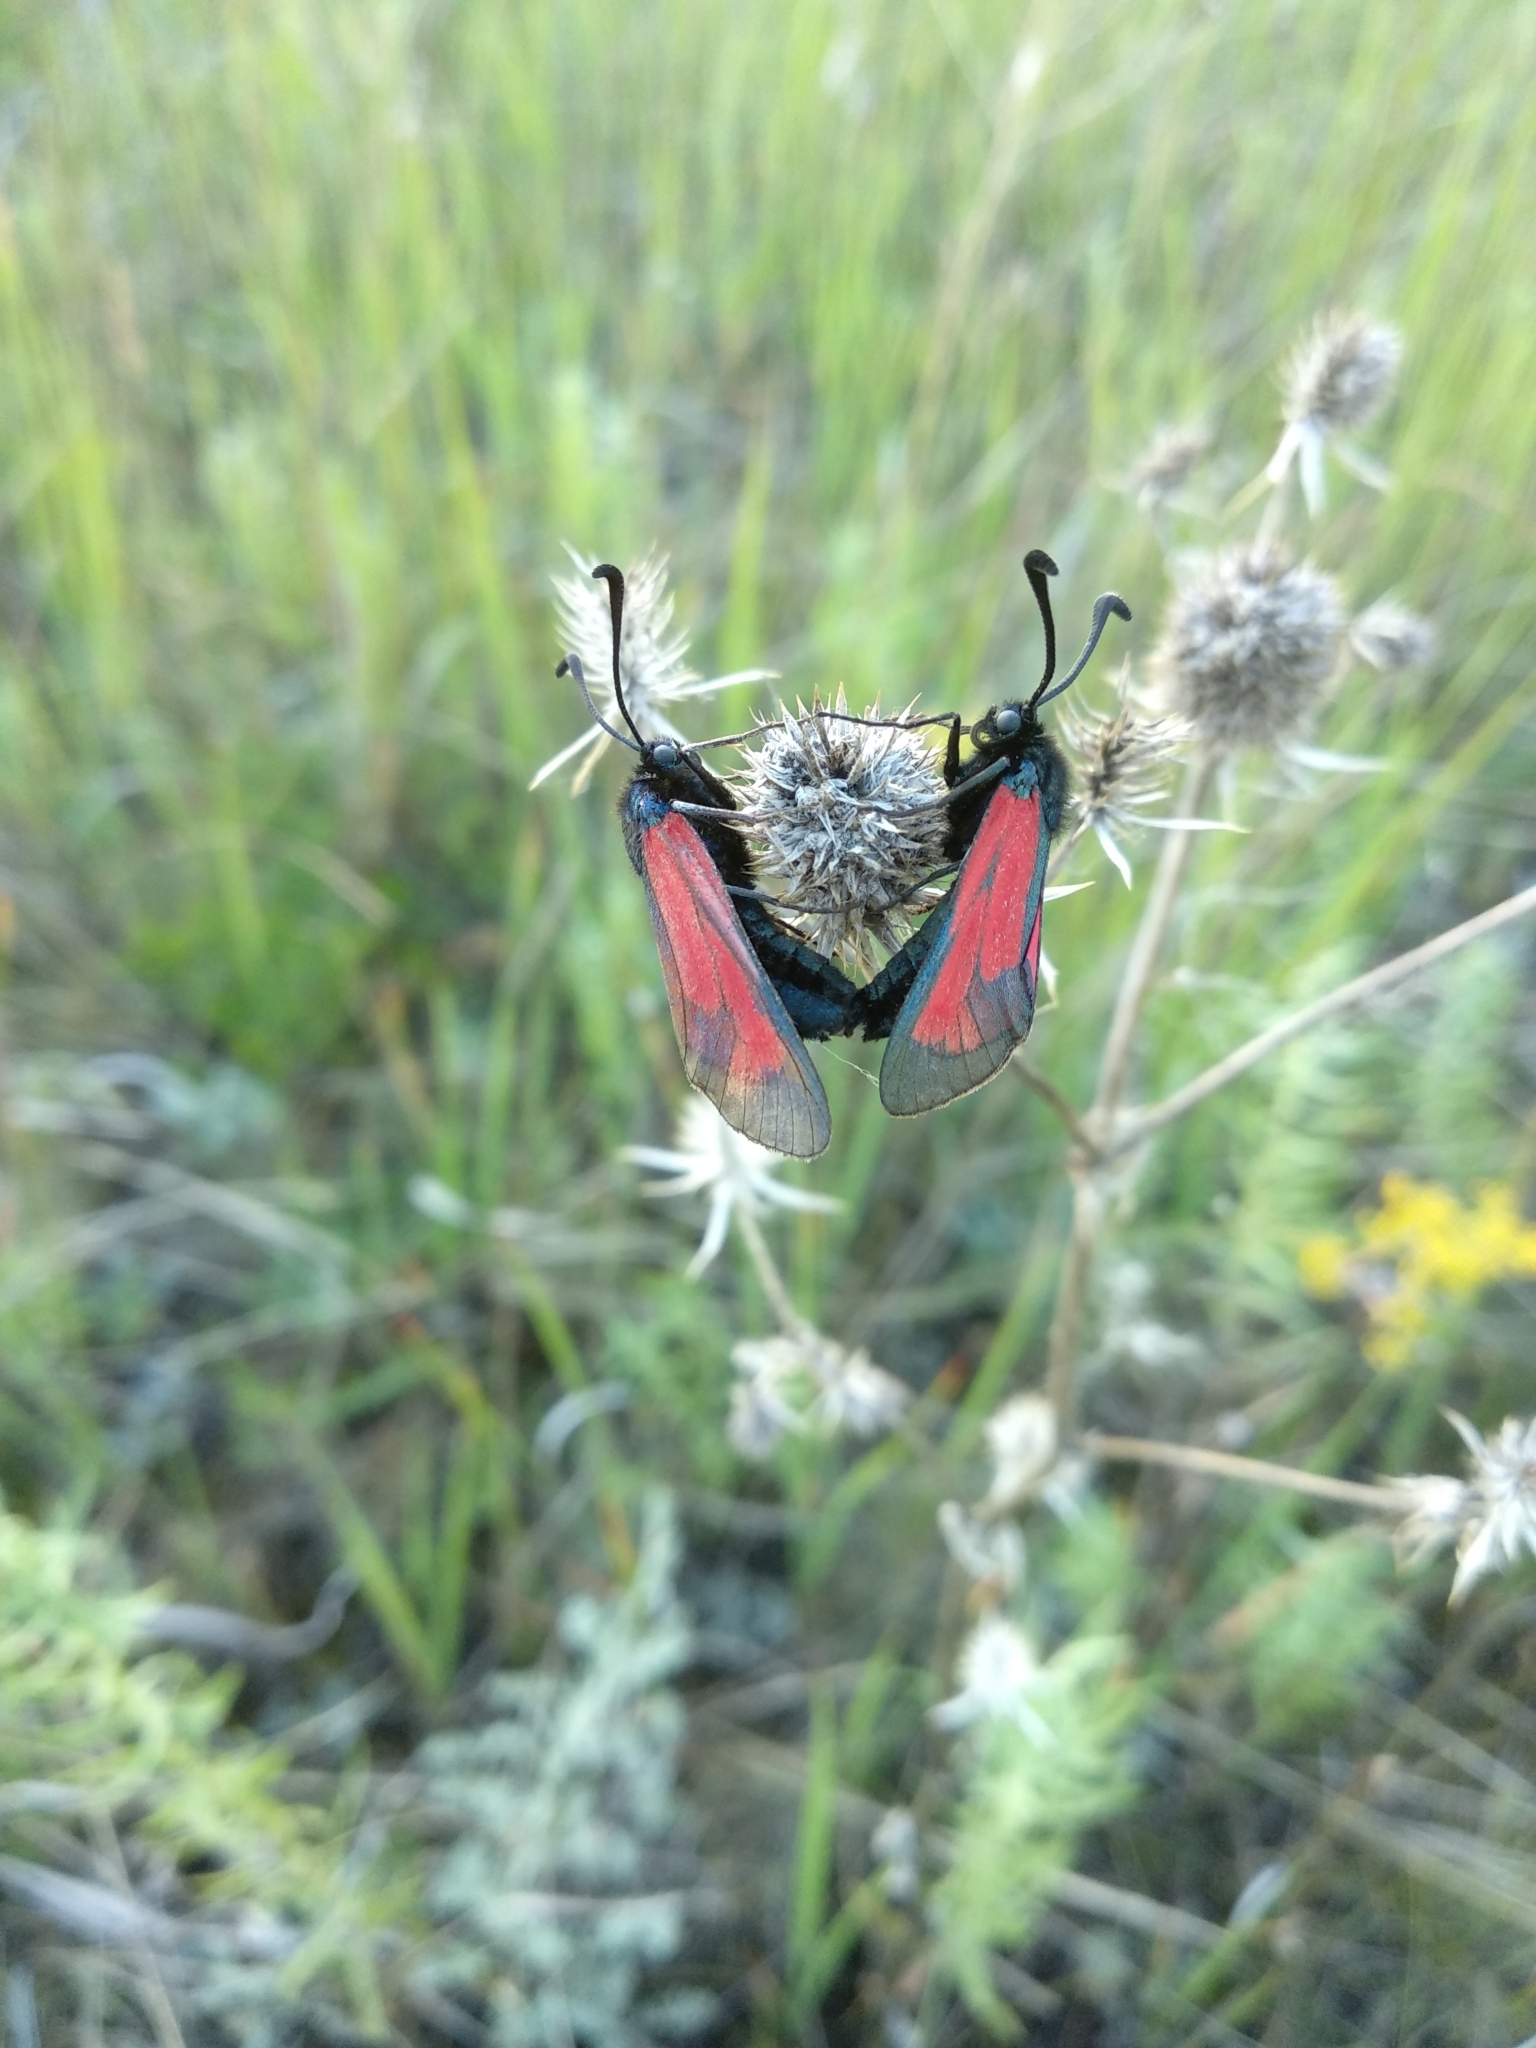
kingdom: Animalia
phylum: Arthropoda
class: Insecta
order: Lepidoptera
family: Zygaenidae
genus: Zygaena
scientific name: Zygaena purpuralis
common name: Transparent burnet
